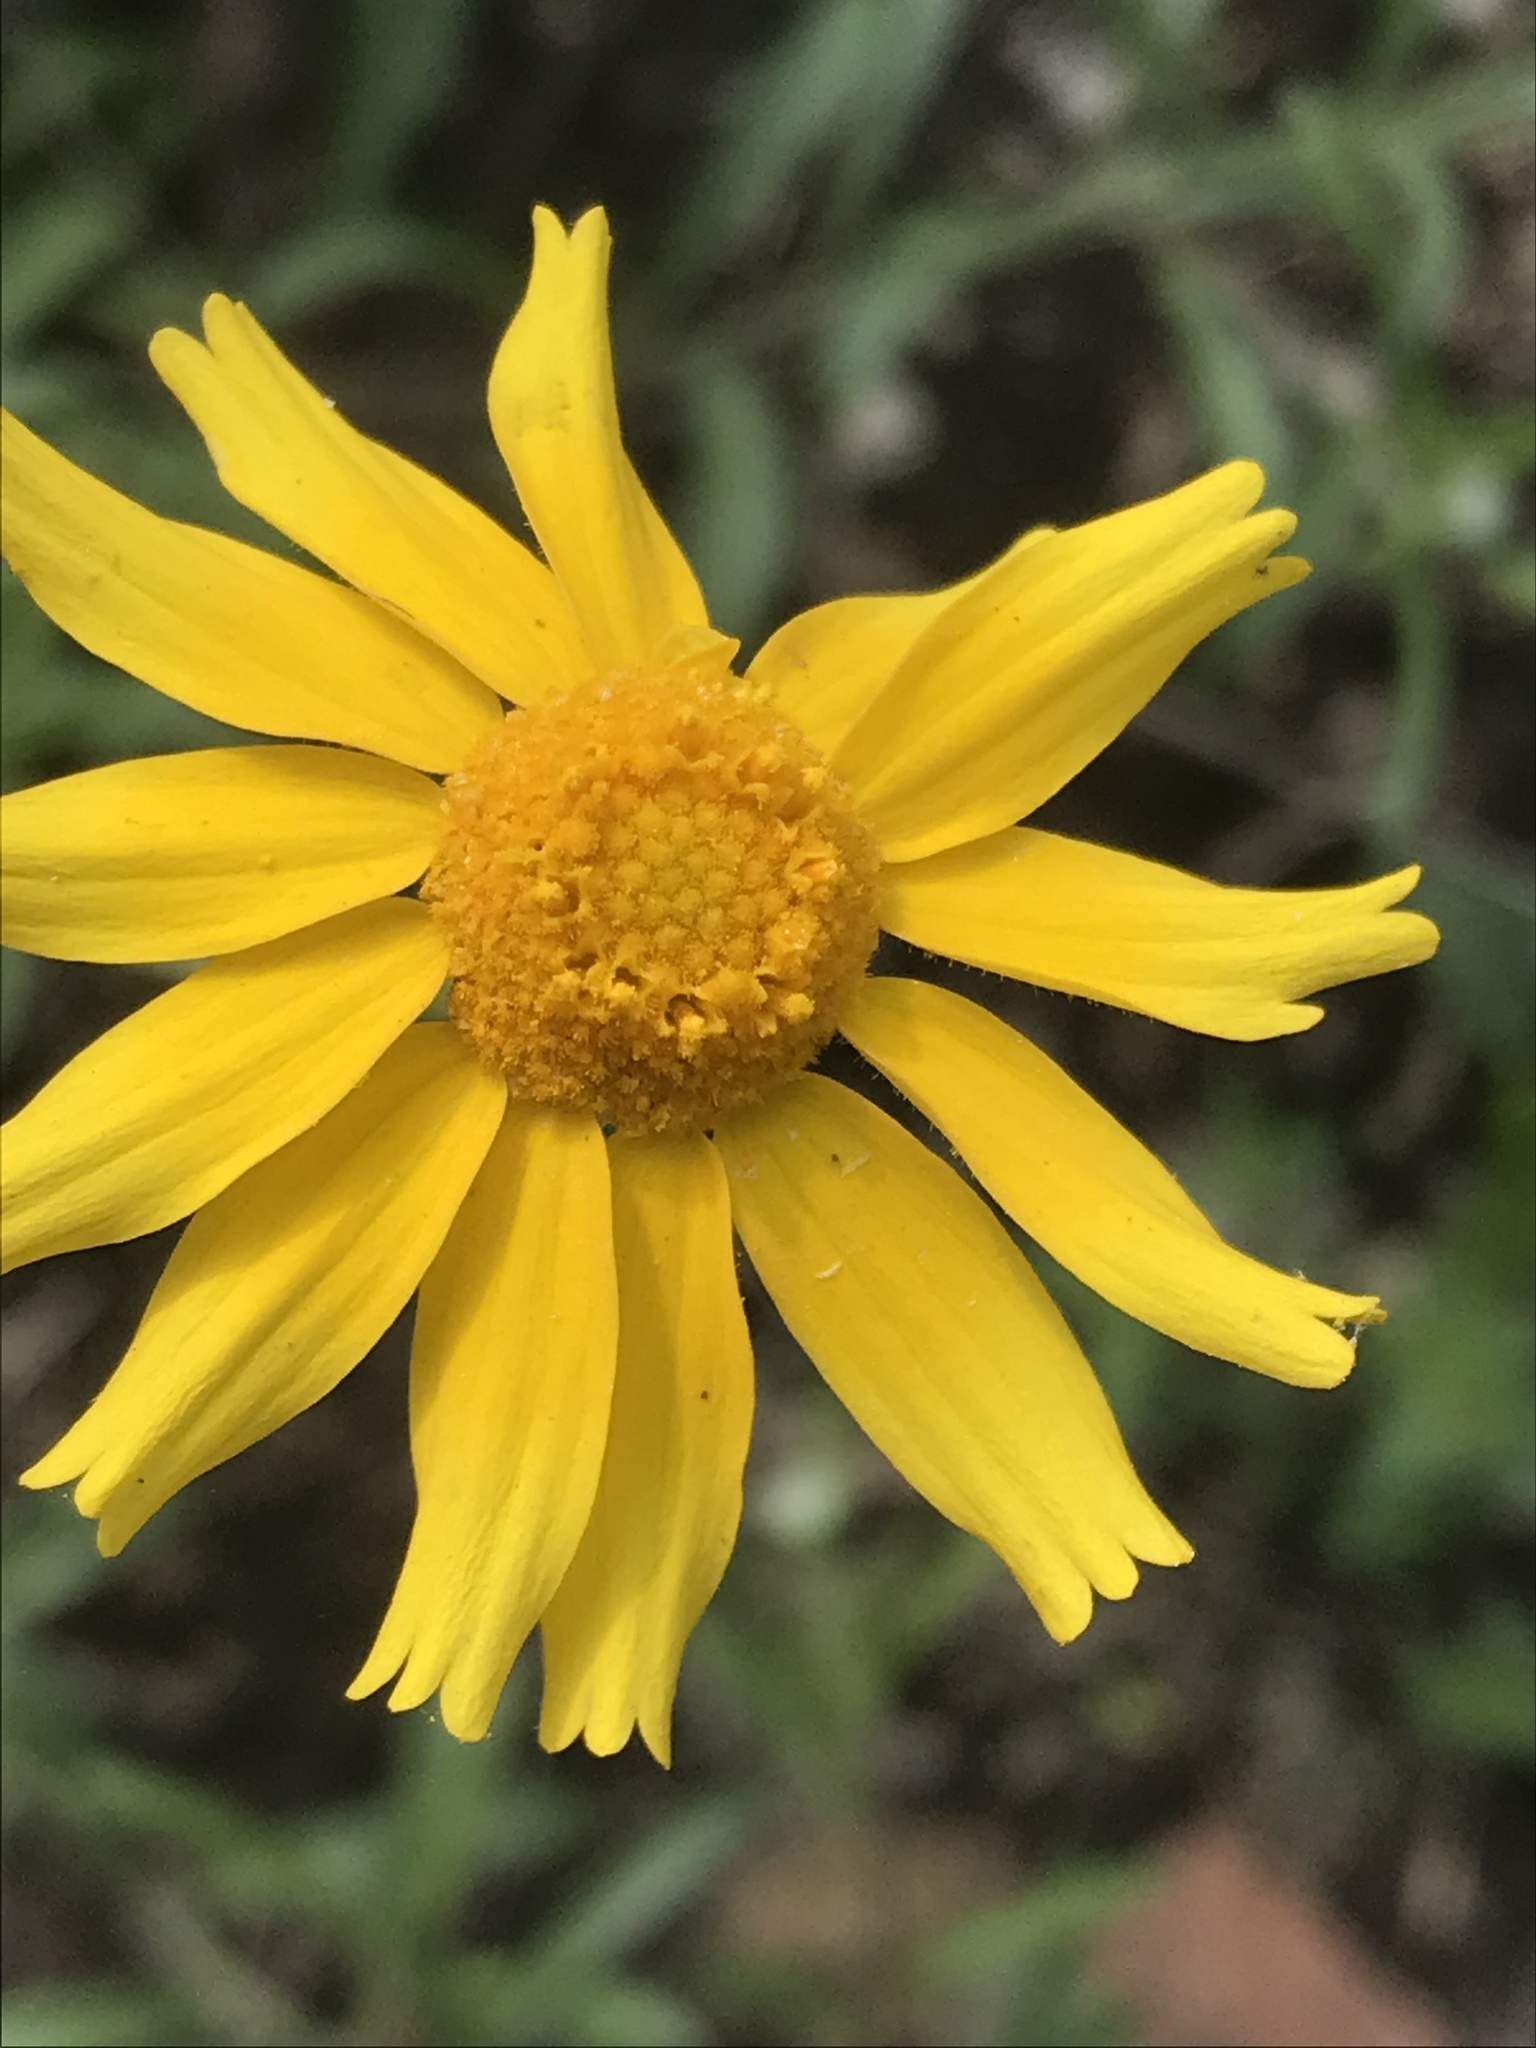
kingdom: Plantae
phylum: Tracheophyta
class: Magnoliopsida
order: Asterales
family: Asteraceae
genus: Tetraneuris
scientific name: Tetraneuris linearifolia
